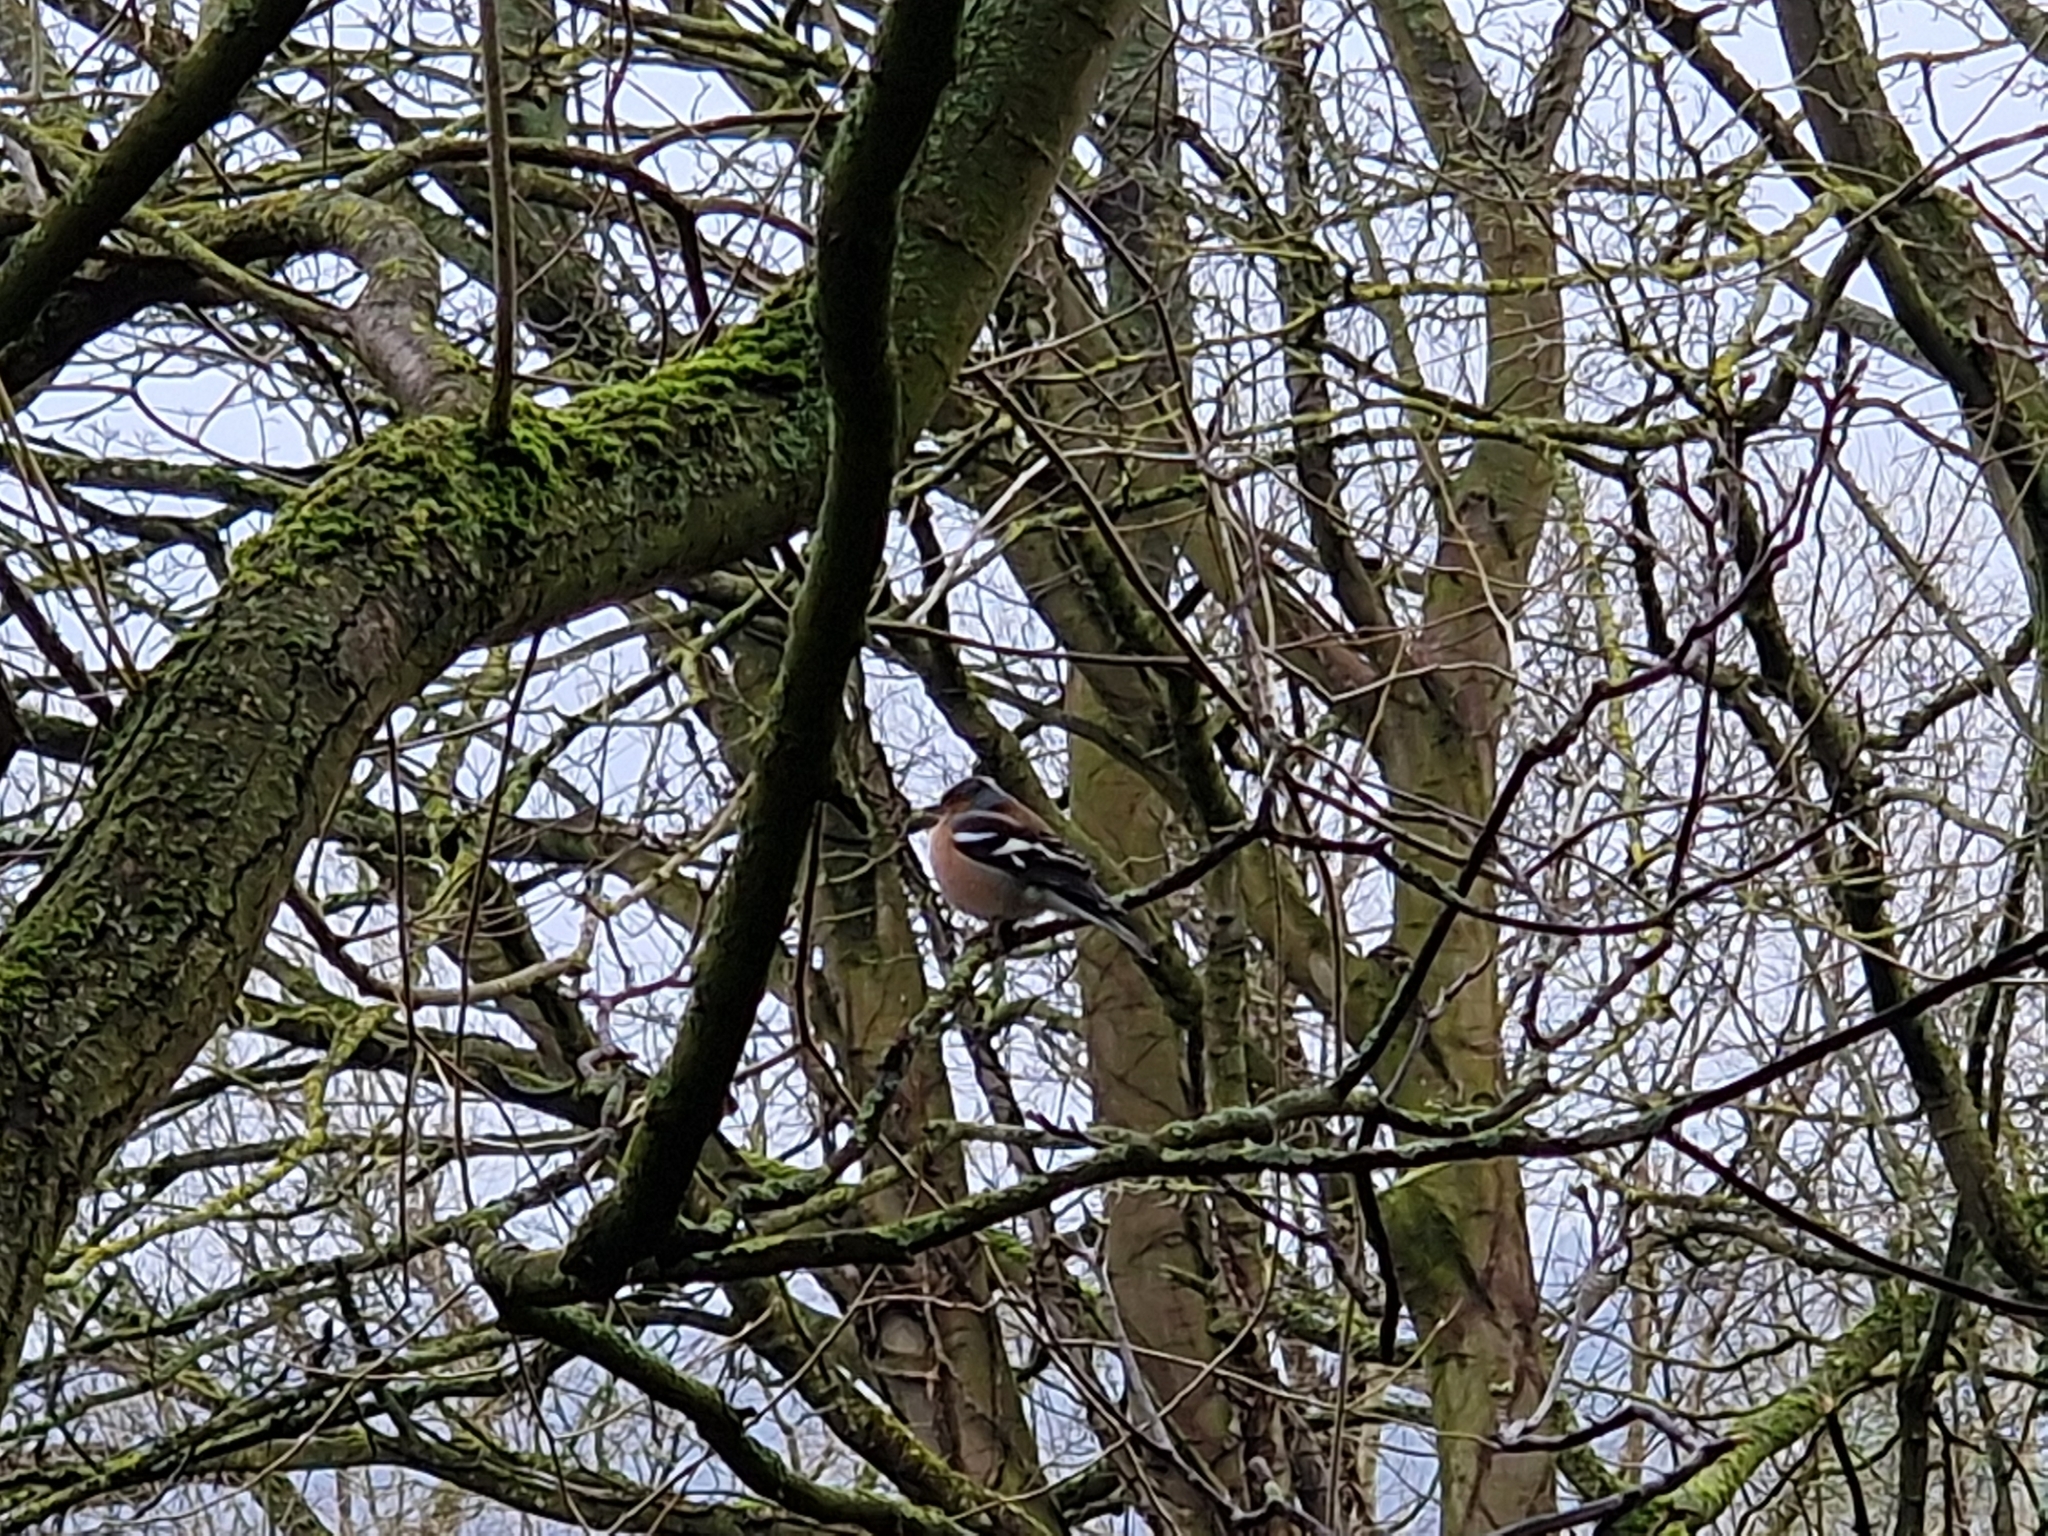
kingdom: Animalia
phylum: Chordata
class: Aves
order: Passeriformes
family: Fringillidae
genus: Fringilla
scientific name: Fringilla coelebs
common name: Common chaffinch
